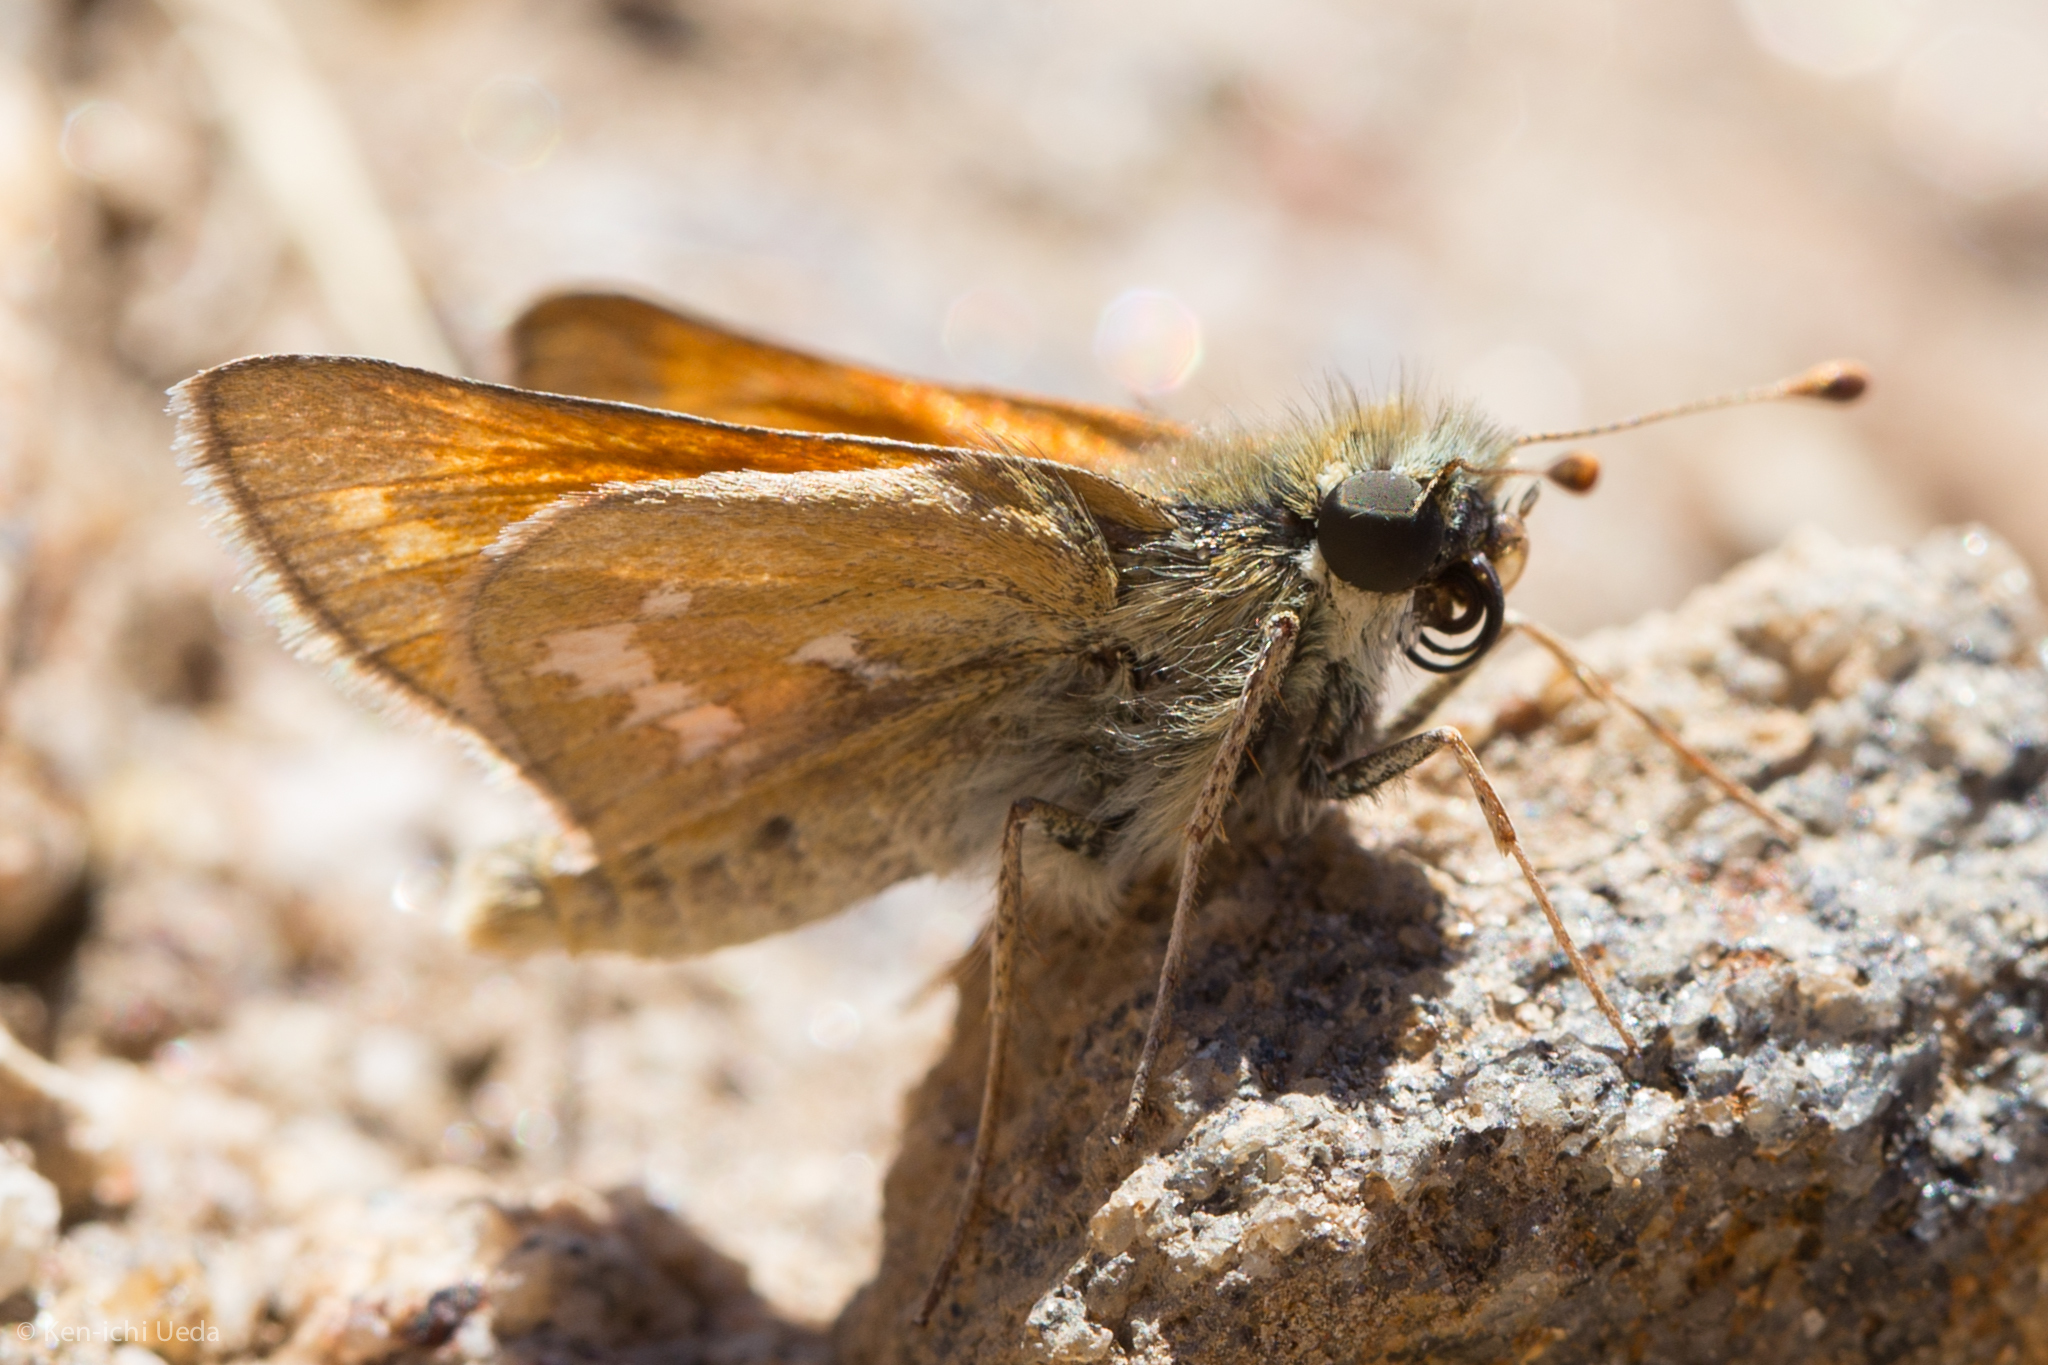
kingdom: Animalia
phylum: Arthropoda
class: Insecta
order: Lepidoptera
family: Hesperiidae
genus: Hesperia
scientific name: Hesperia columbia
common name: Columbian skipper
